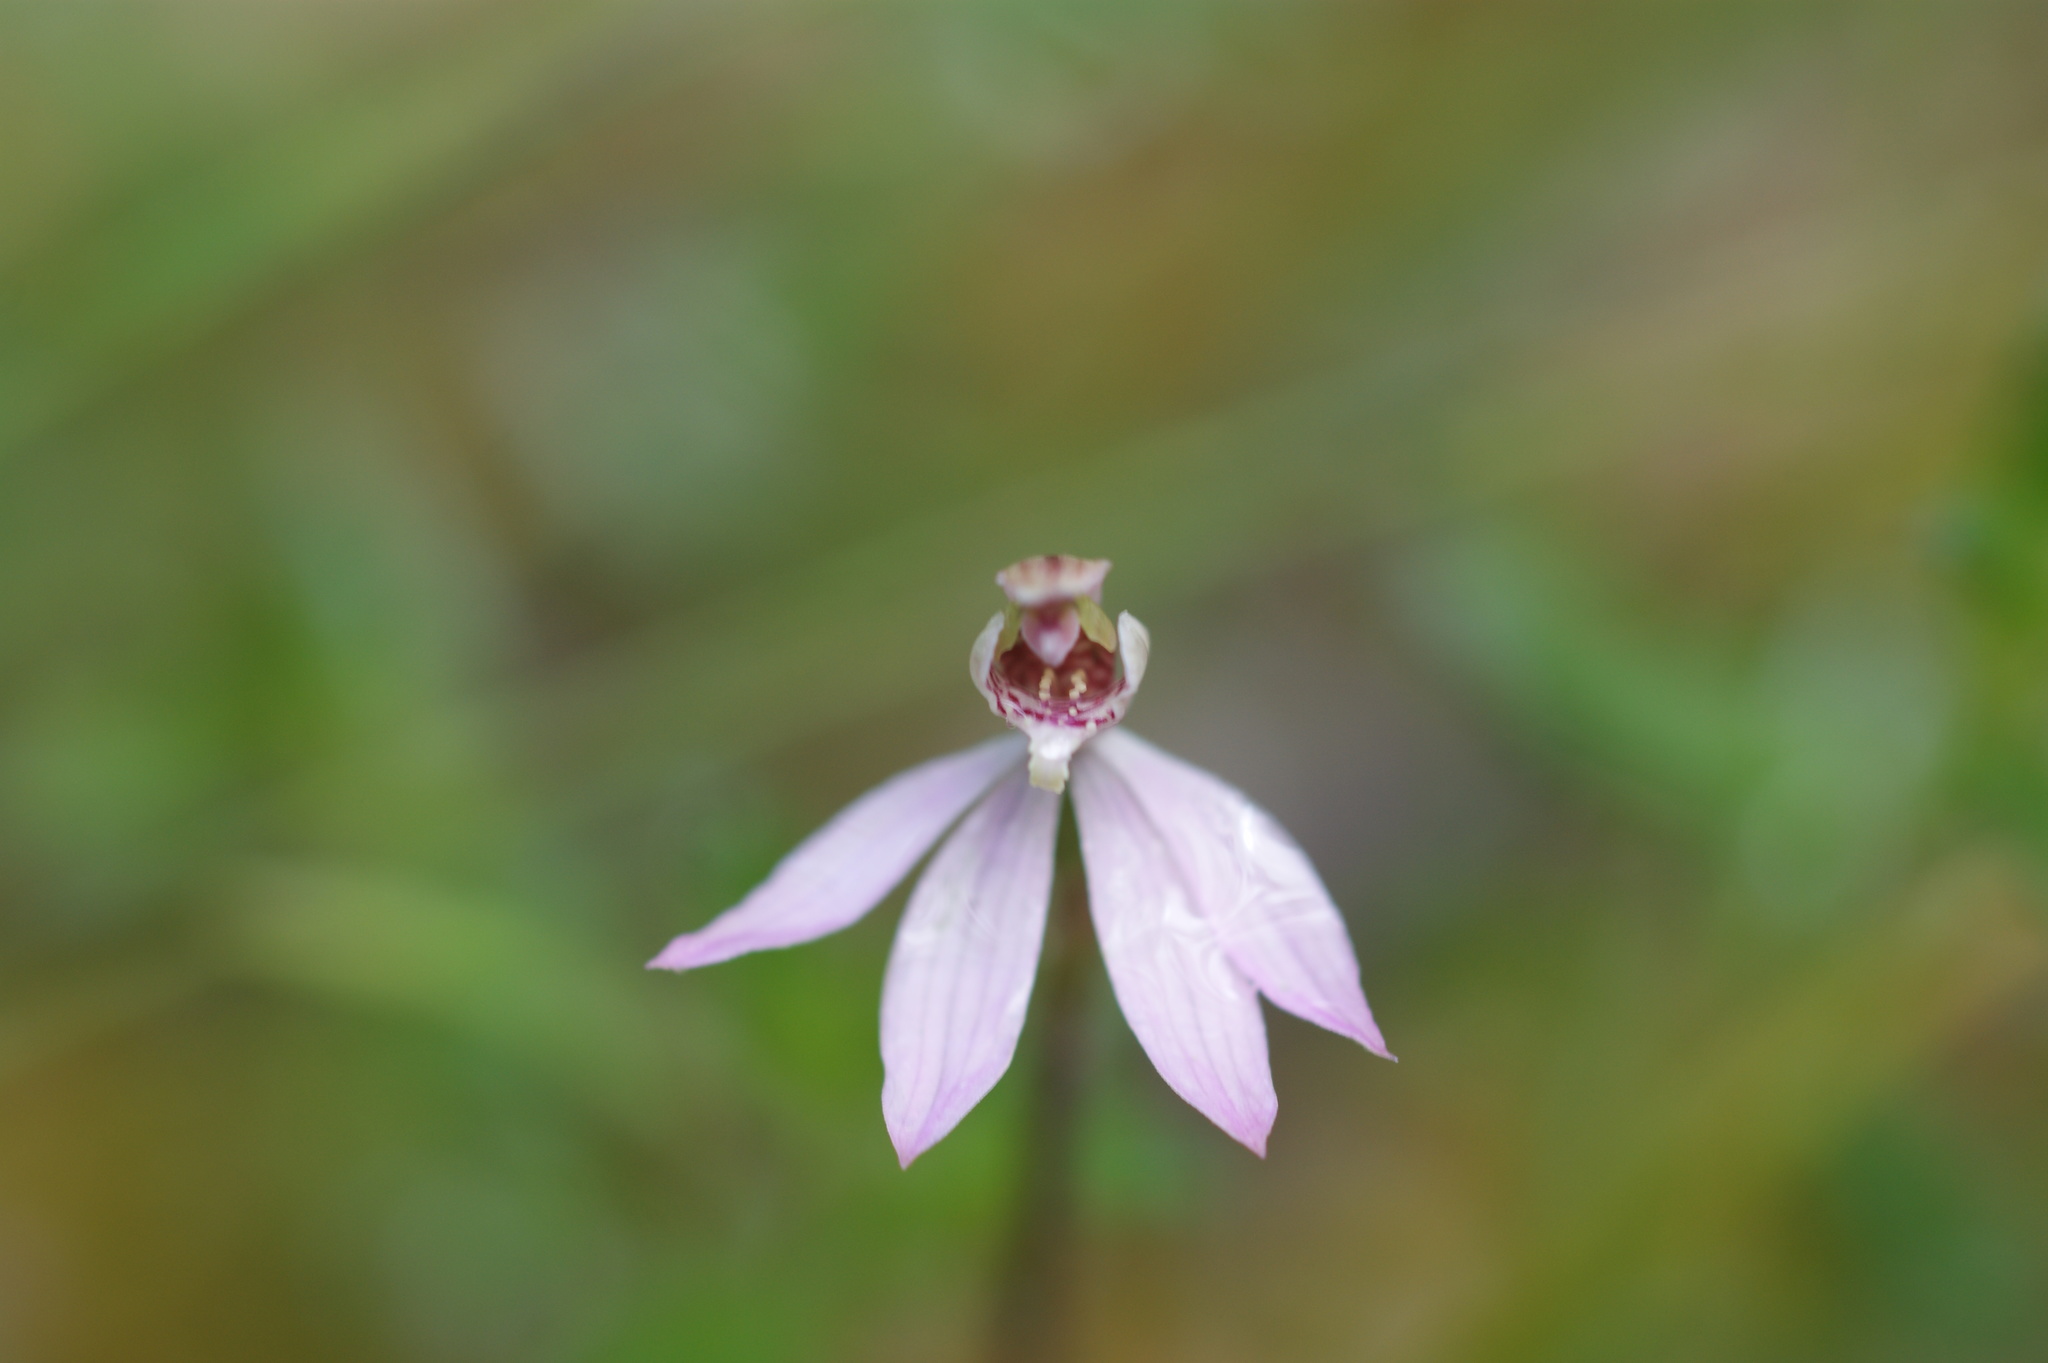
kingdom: Plantae
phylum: Tracheophyta
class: Liliopsida
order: Asparagales
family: Orchidaceae
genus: Caladenia
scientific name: Caladenia carnea
